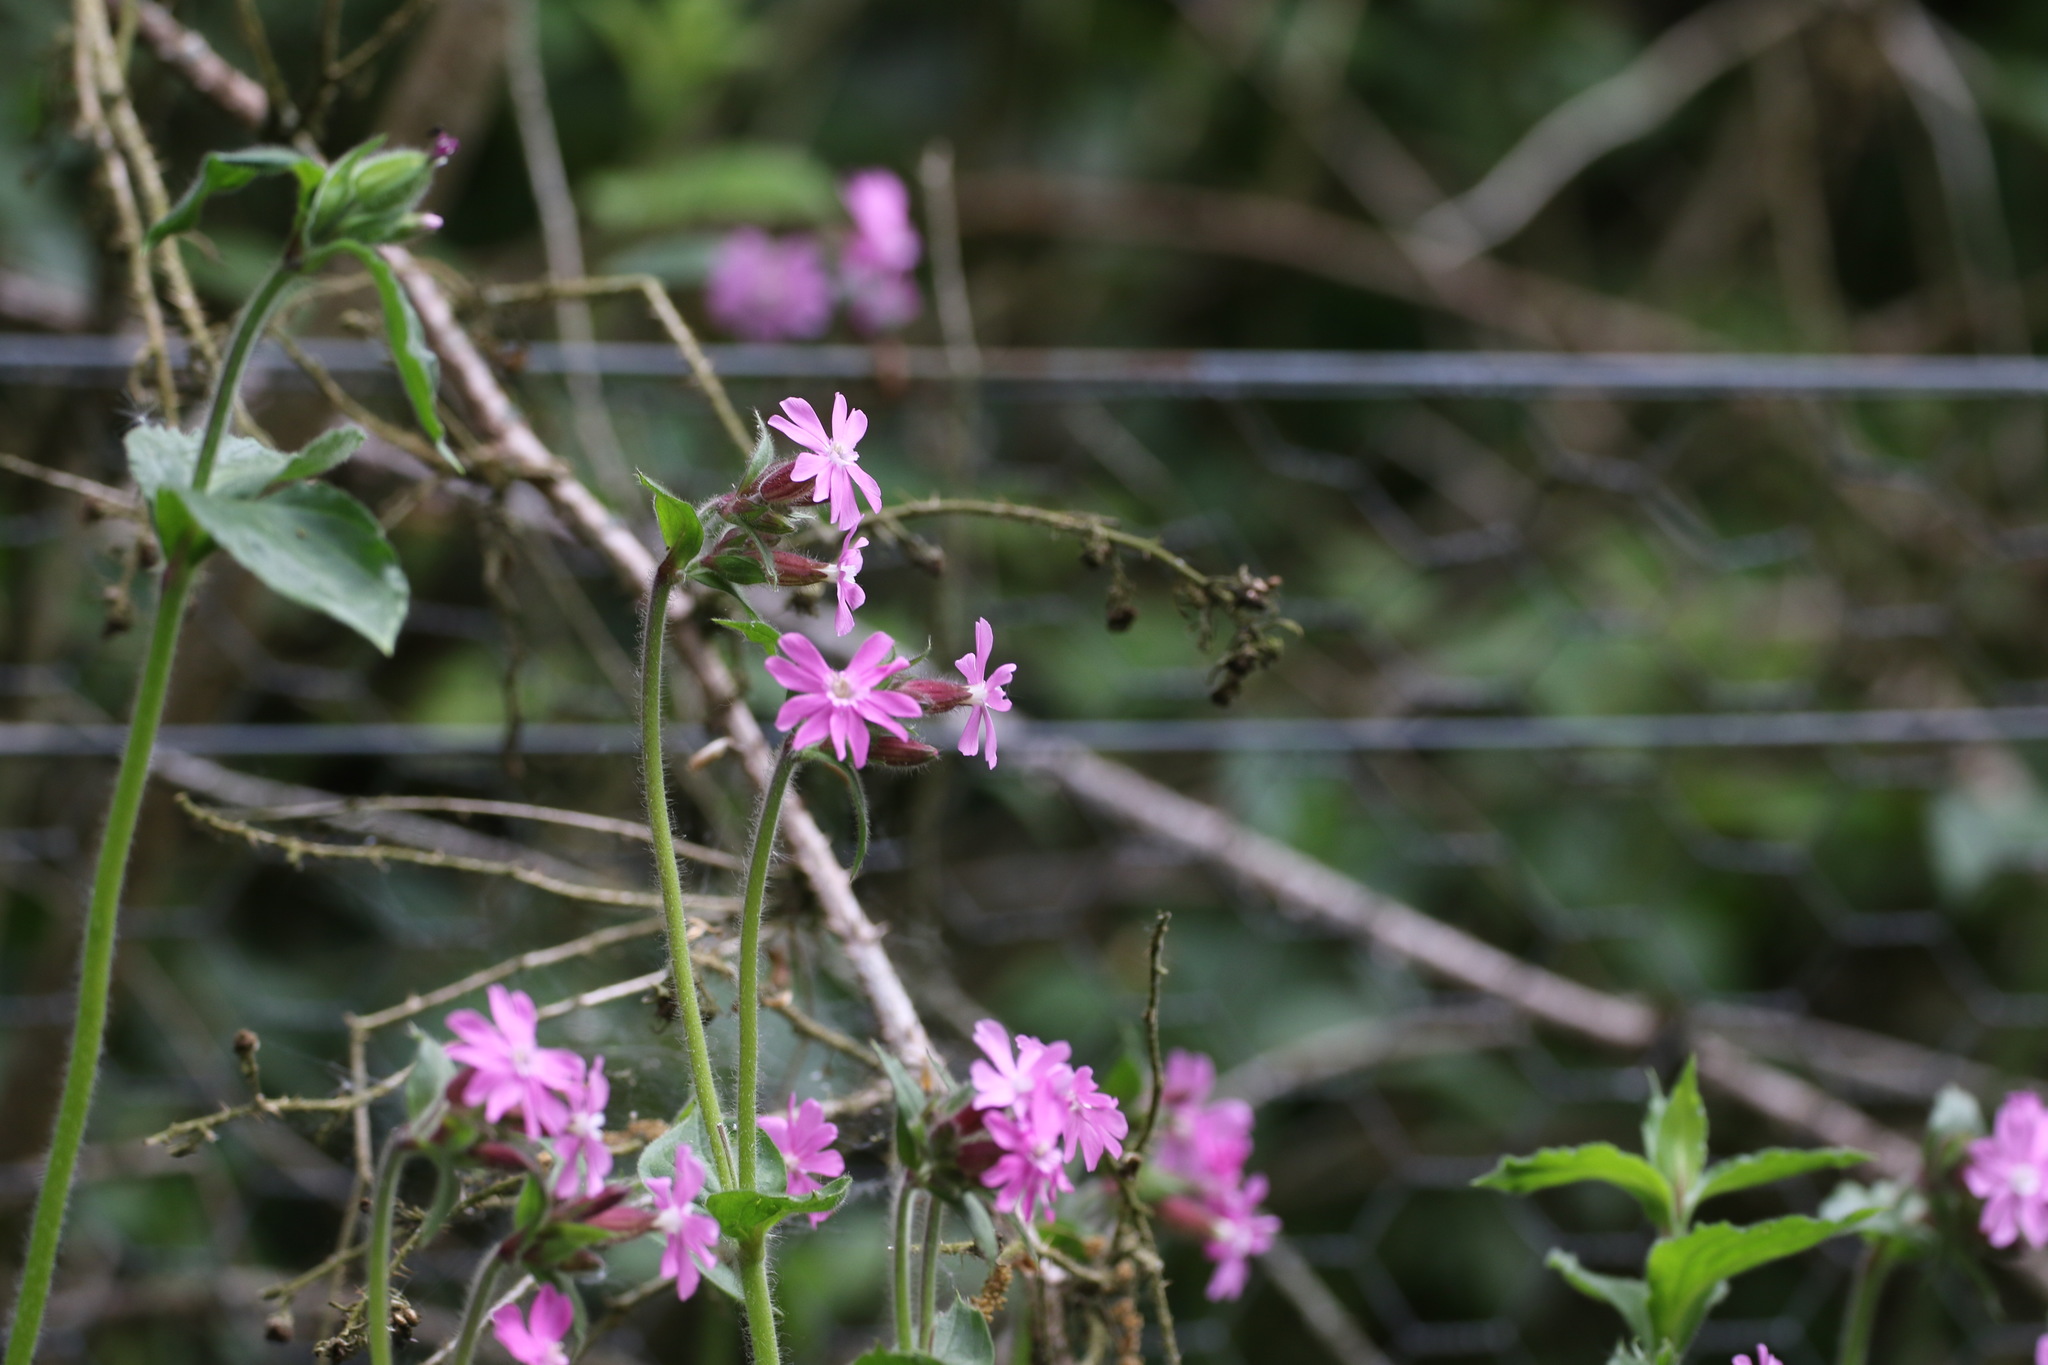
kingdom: Plantae
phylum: Tracheophyta
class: Magnoliopsida
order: Caryophyllales
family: Caryophyllaceae
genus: Silene
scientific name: Silene dioica
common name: Red campion
